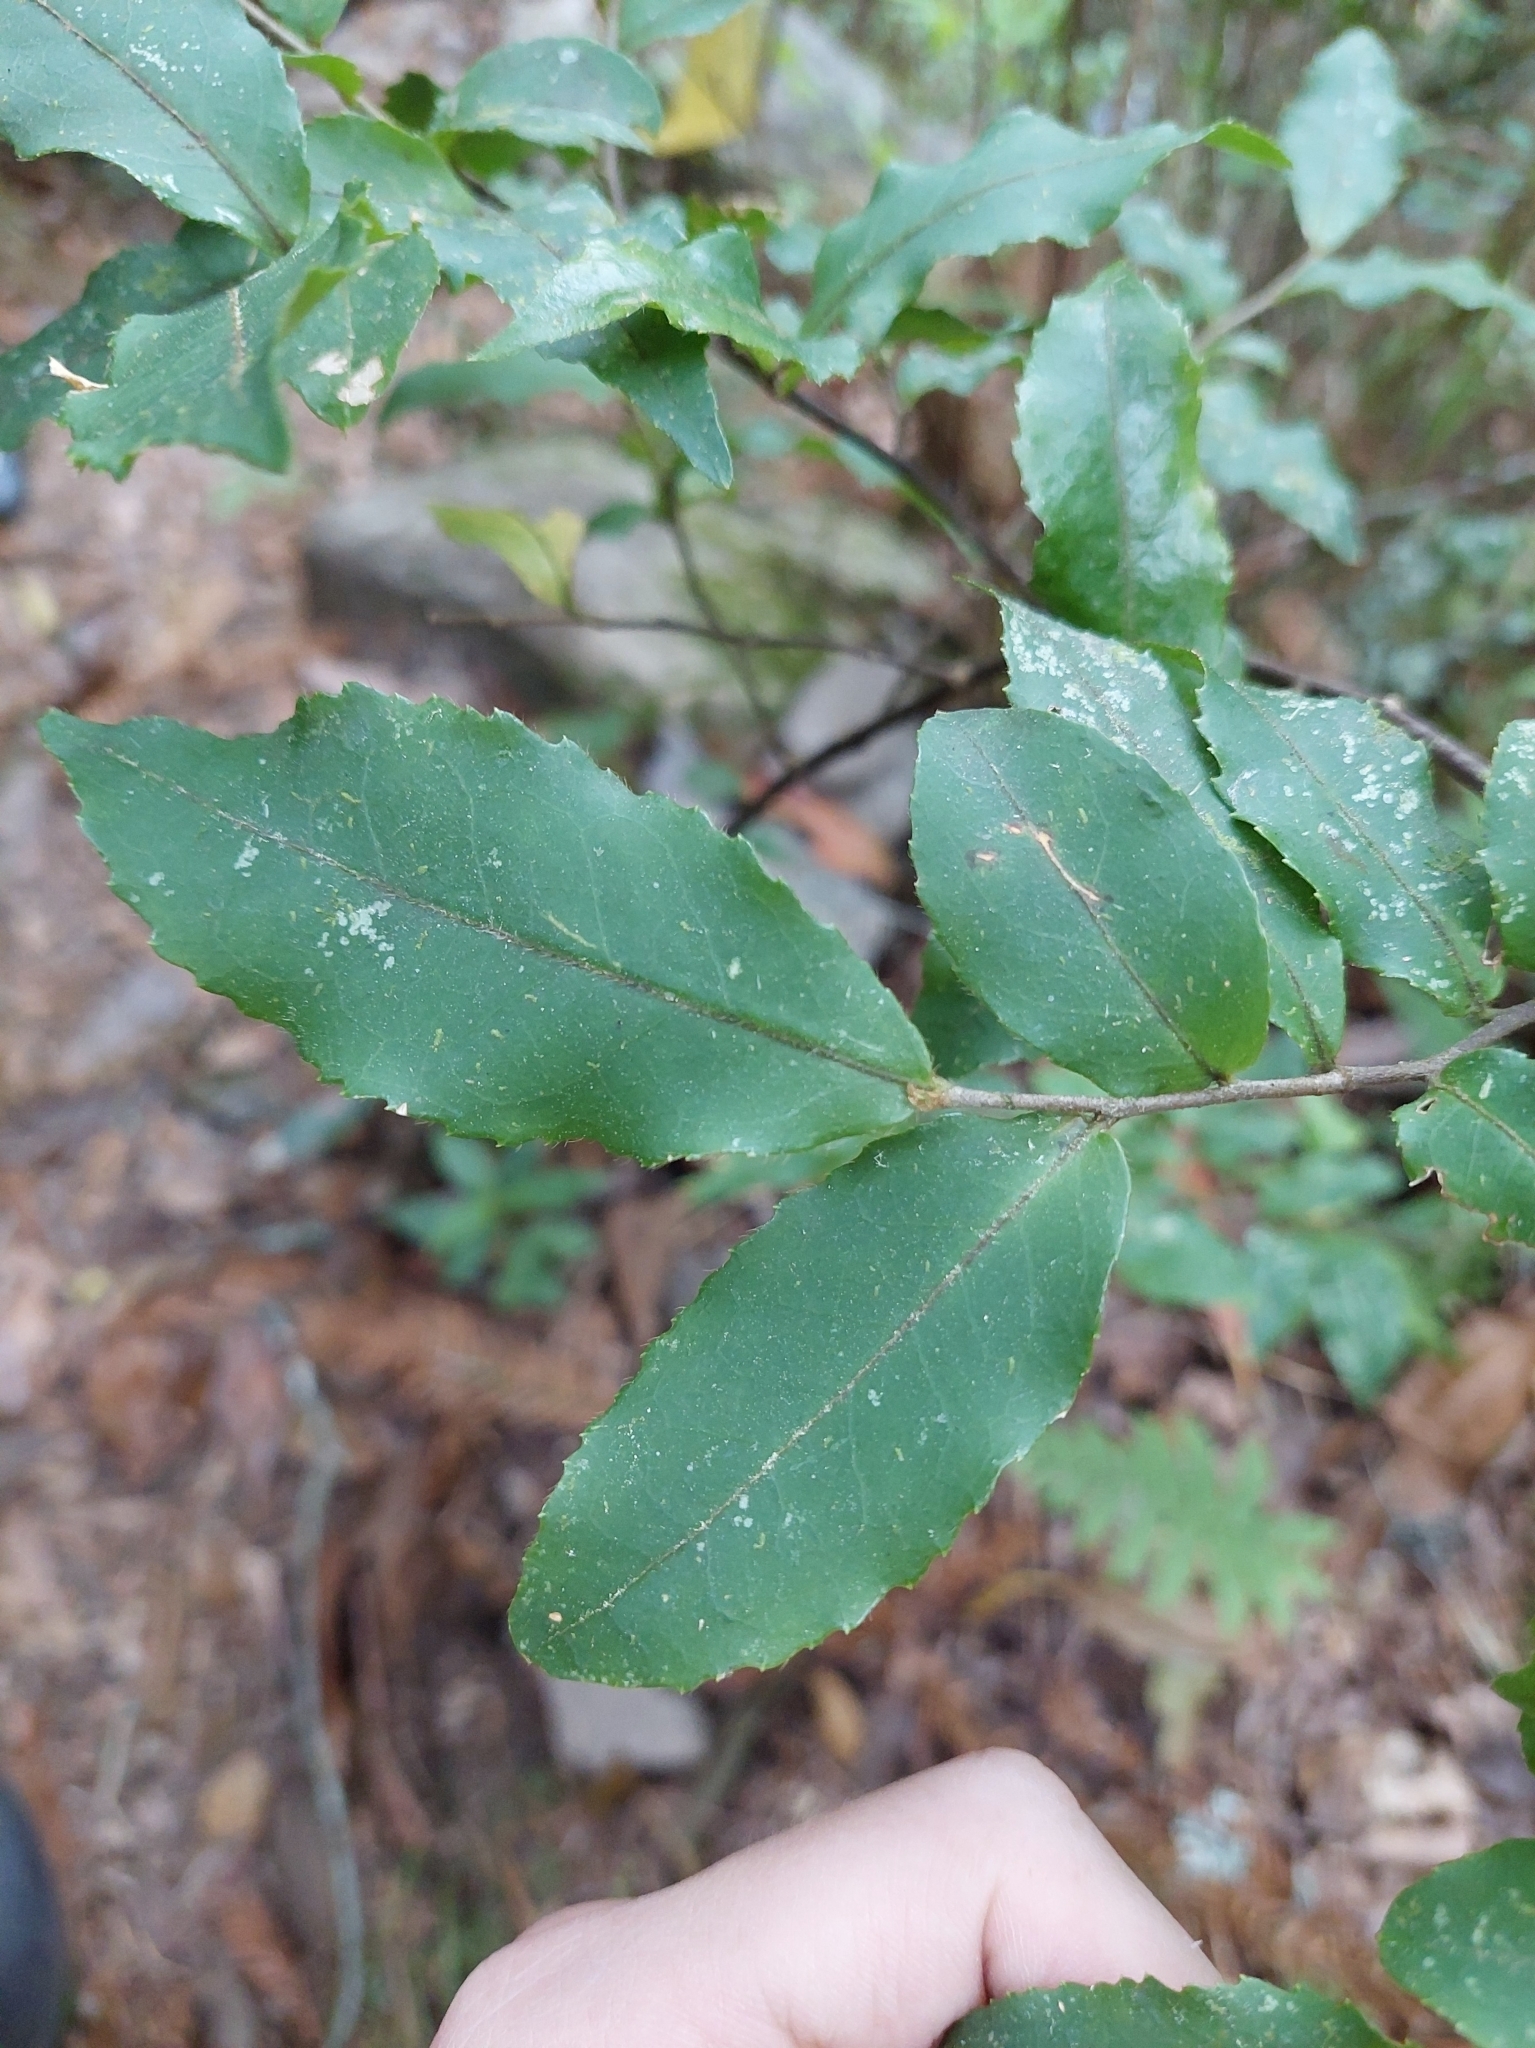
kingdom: Plantae
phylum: Tracheophyta
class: Magnoliopsida
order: Ericales
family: Symplocaceae
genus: Symplocos
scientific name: Symplocos lancifolia
